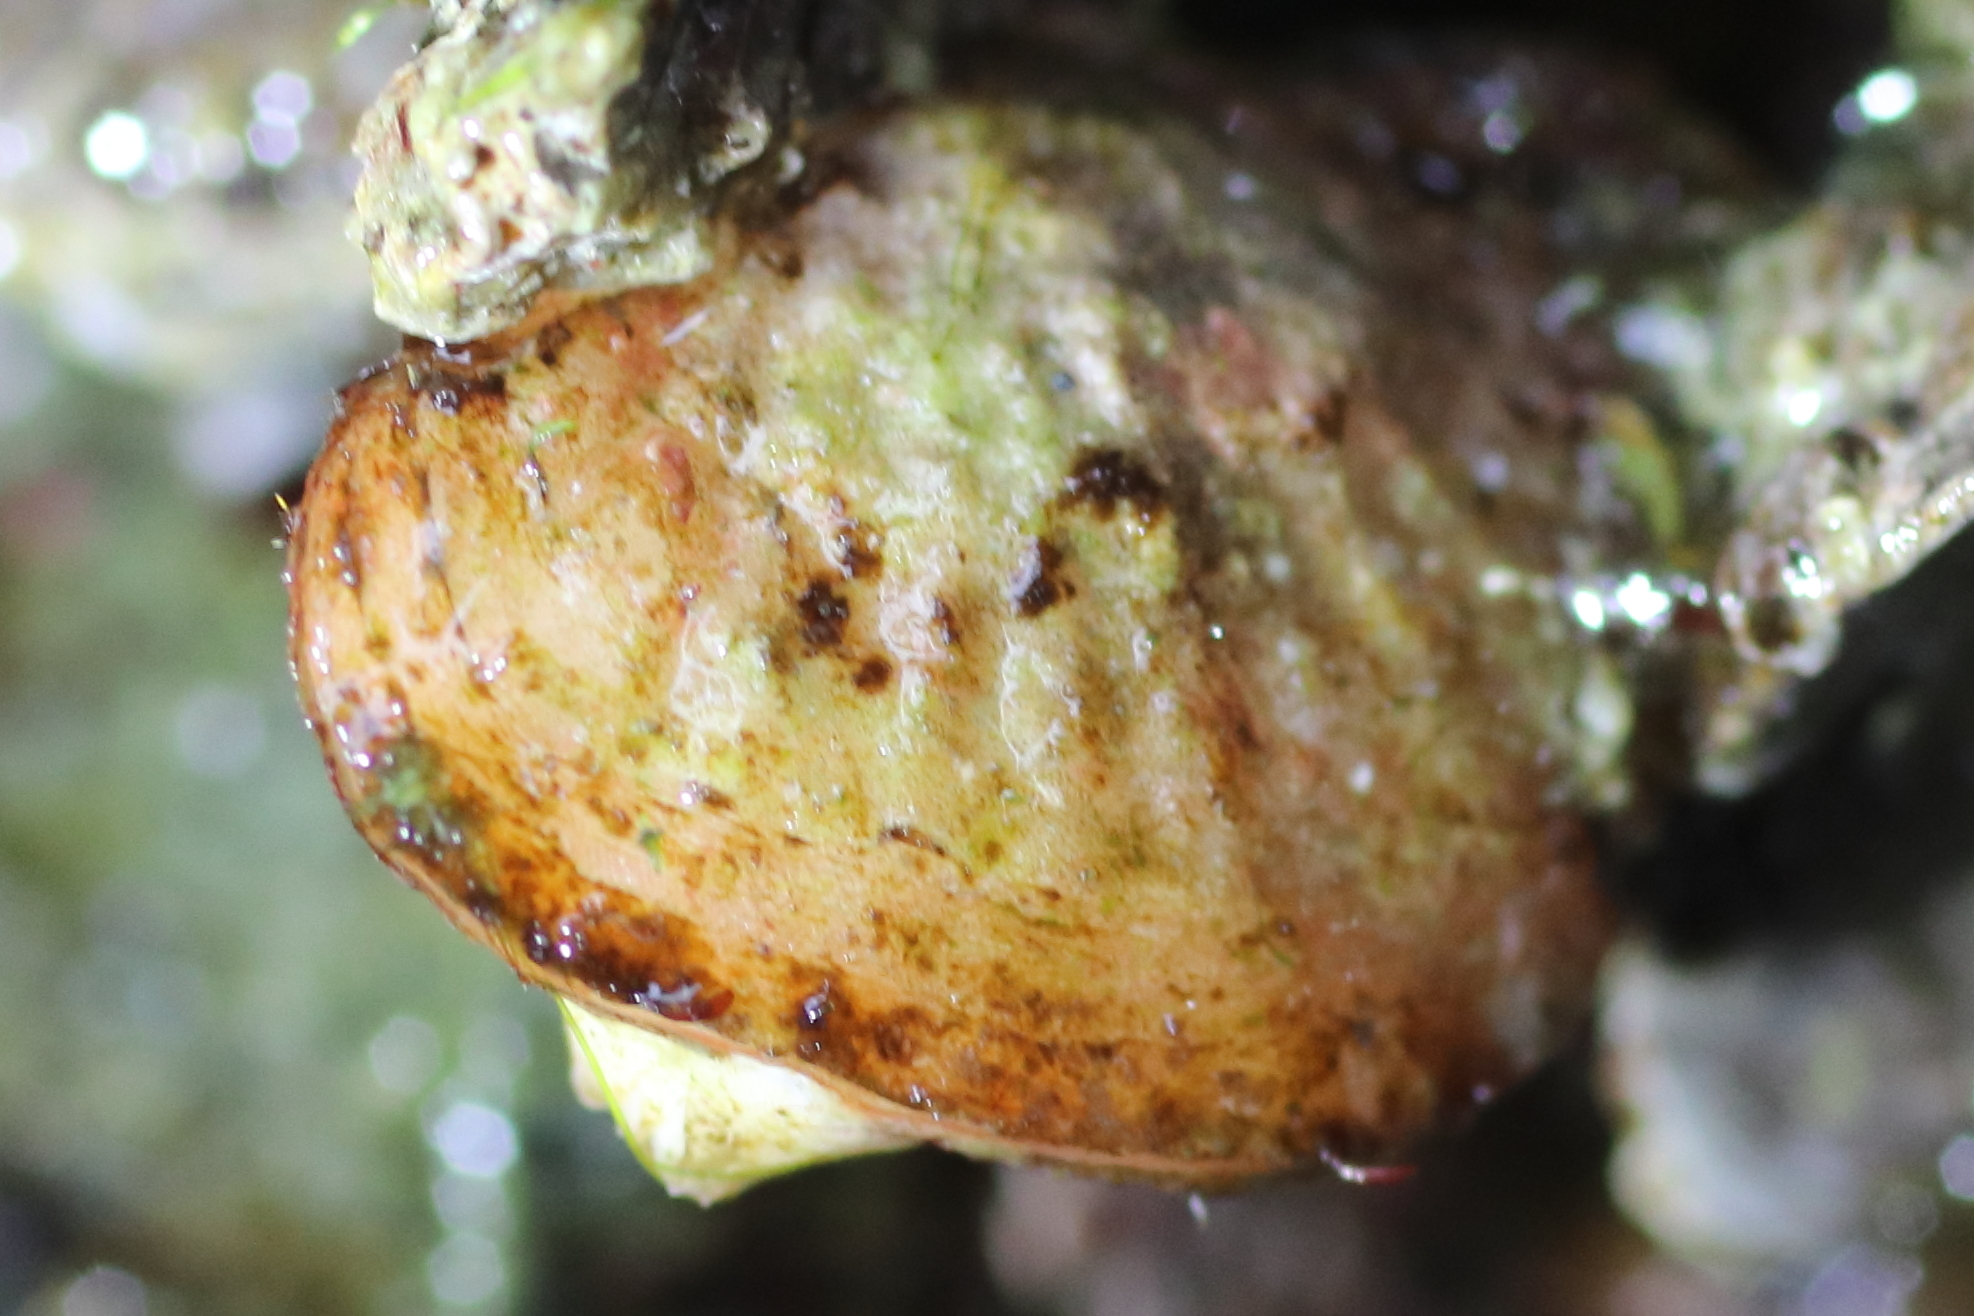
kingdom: Animalia
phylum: Brachiopoda
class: Rhynchonellata
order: Terebratulida
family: Terebrataliidae
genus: Terebratalia
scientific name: Terebratalia transversa
